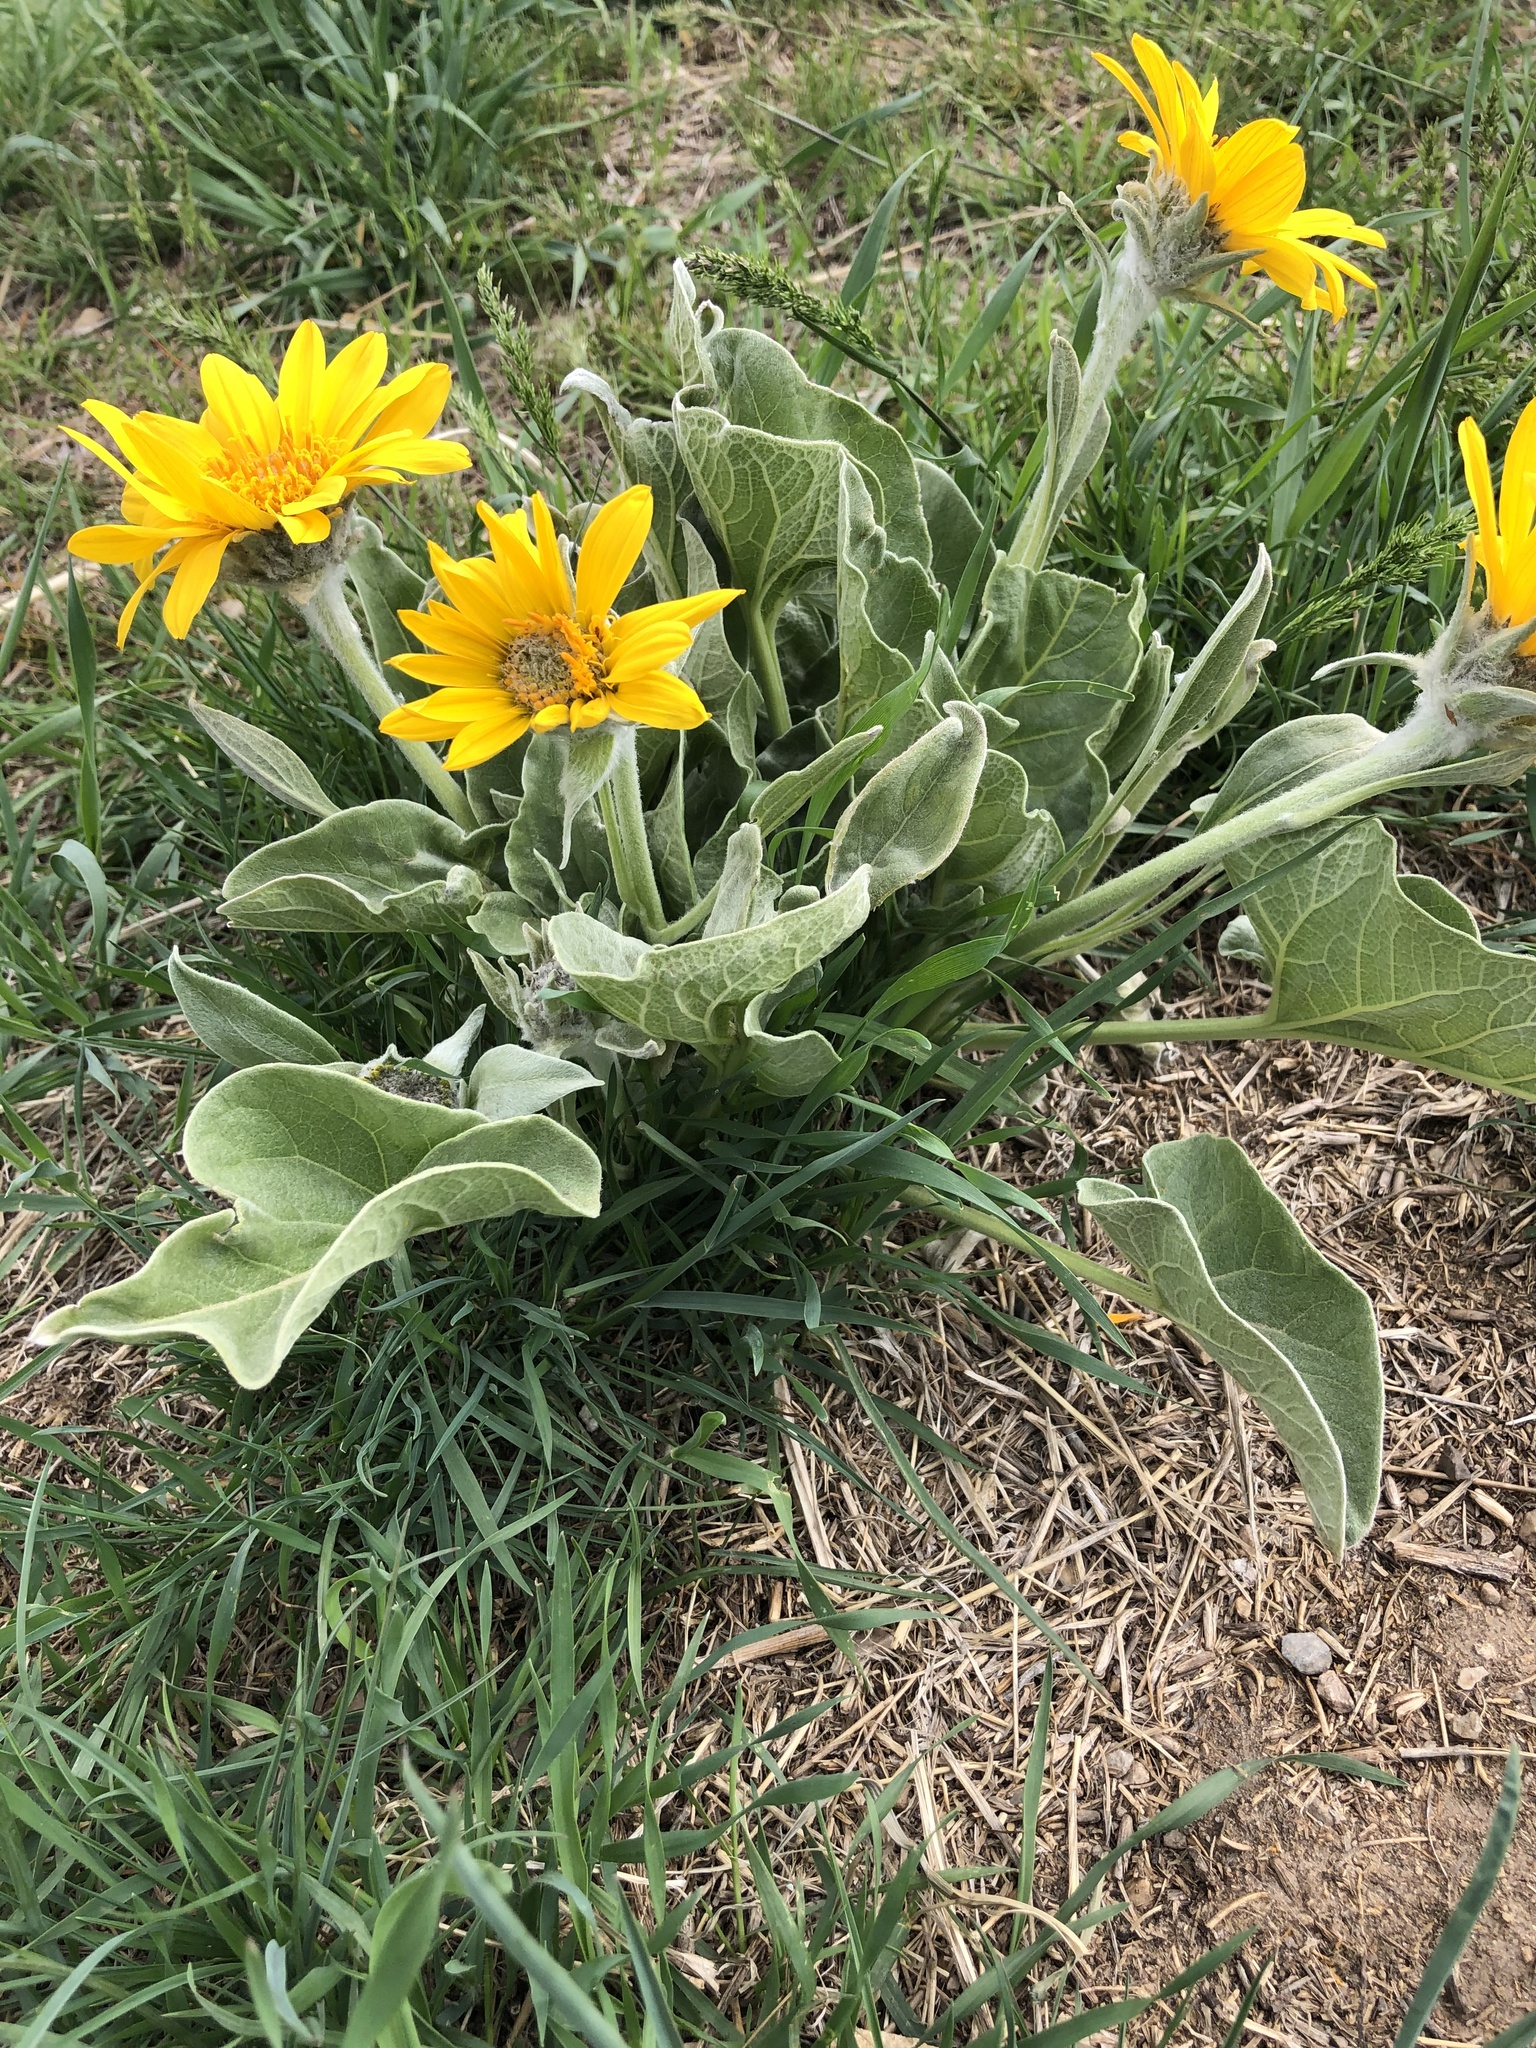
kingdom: Plantae
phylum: Tracheophyta
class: Magnoliopsida
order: Asterales
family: Asteraceae
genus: Wyethia
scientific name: Wyethia sagittata
